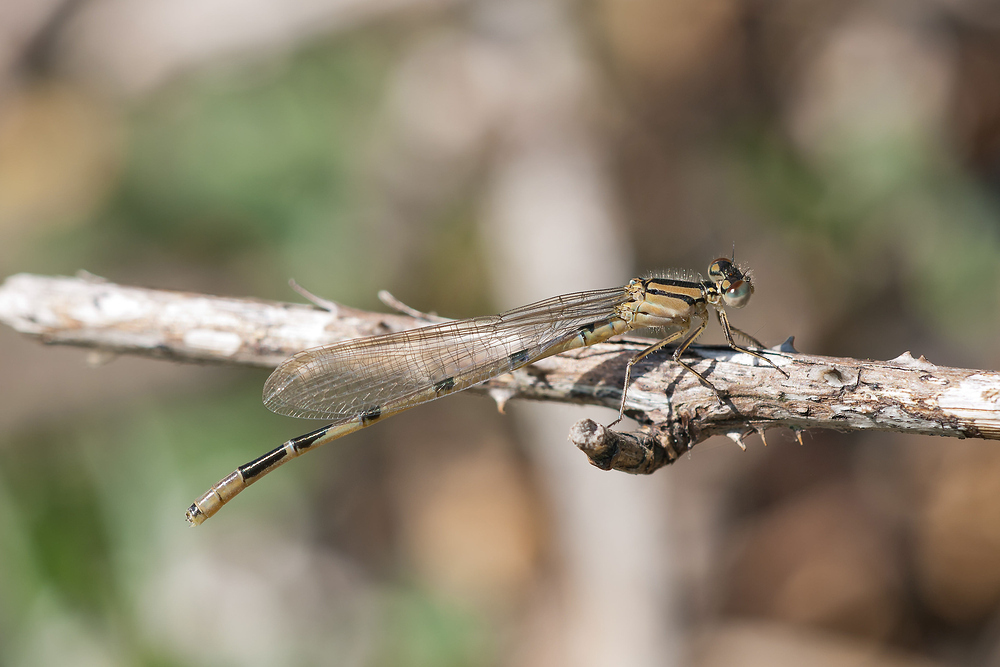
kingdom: Animalia
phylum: Arthropoda
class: Insecta
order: Odonata
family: Coenagrionidae
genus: Enallagma
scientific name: Enallagma cyathigerum
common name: Common blue damselfly
